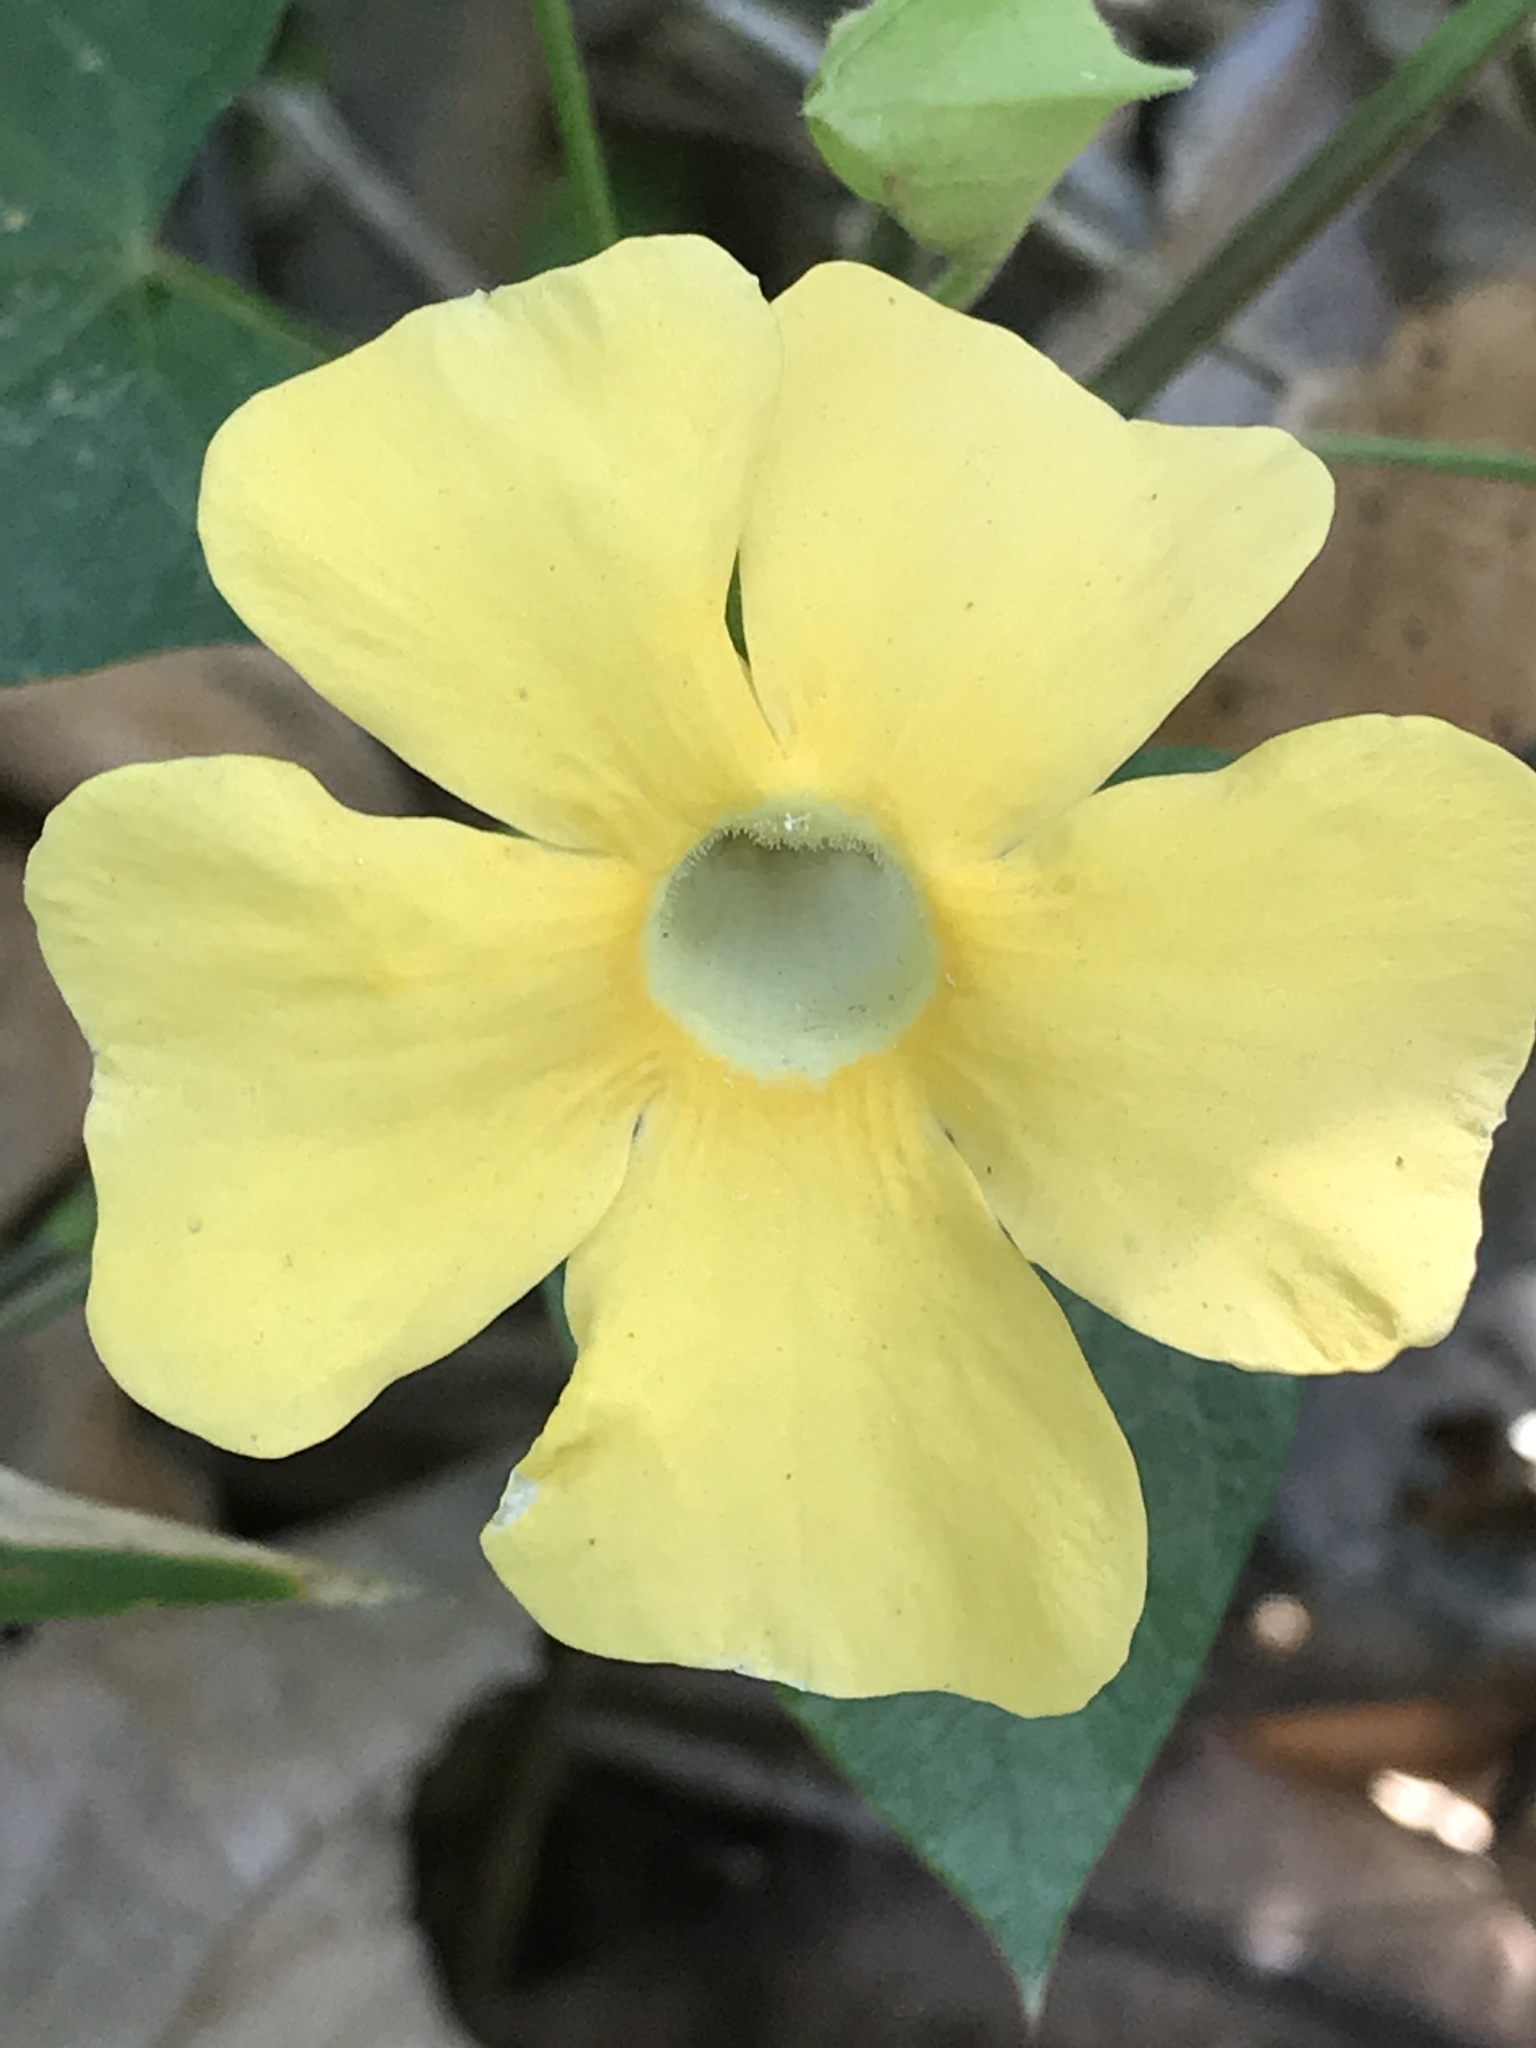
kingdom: Plantae
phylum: Tracheophyta
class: Magnoliopsida
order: Lamiales
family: Acanthaceae
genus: Thunbergia
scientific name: Thunbergia alata
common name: Blackeyed susan vine
